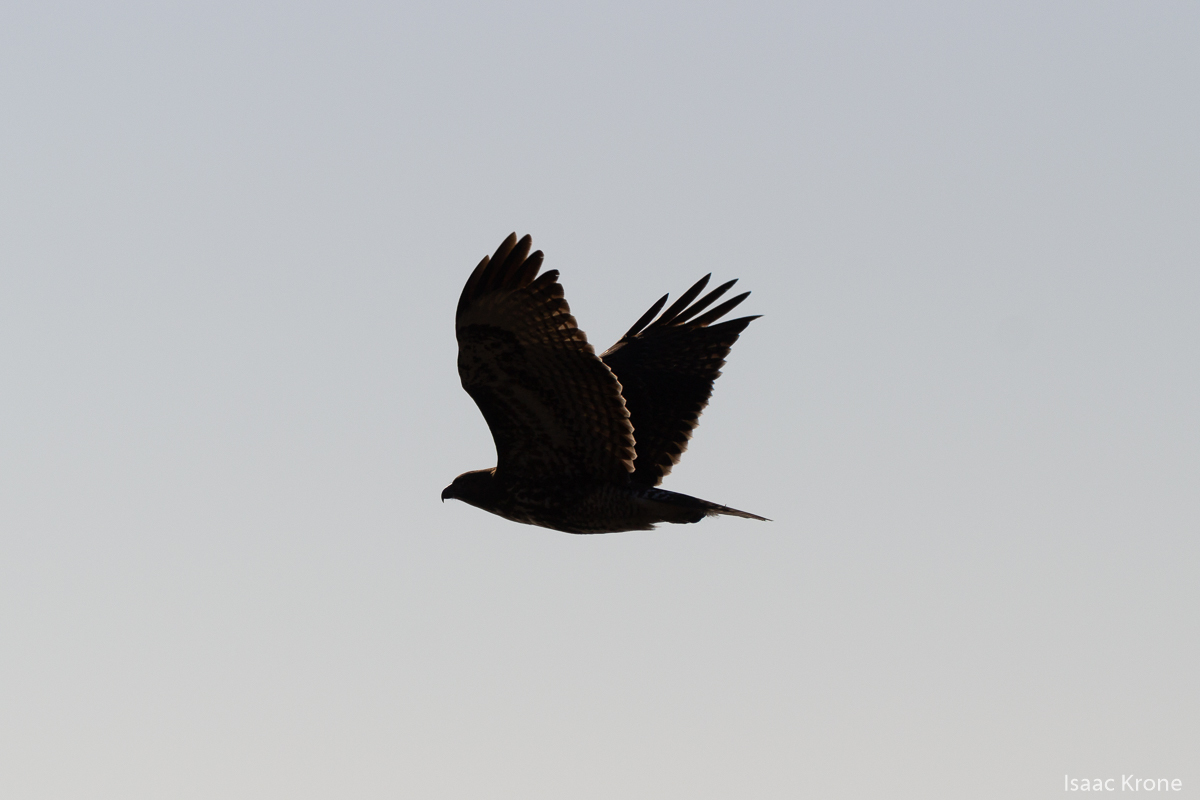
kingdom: Animalia
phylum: Chordata
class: Aves
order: Accipitriformes
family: Accipitridae
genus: Buteo
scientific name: Buteo jamaicensis
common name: Red-tailed hawk
